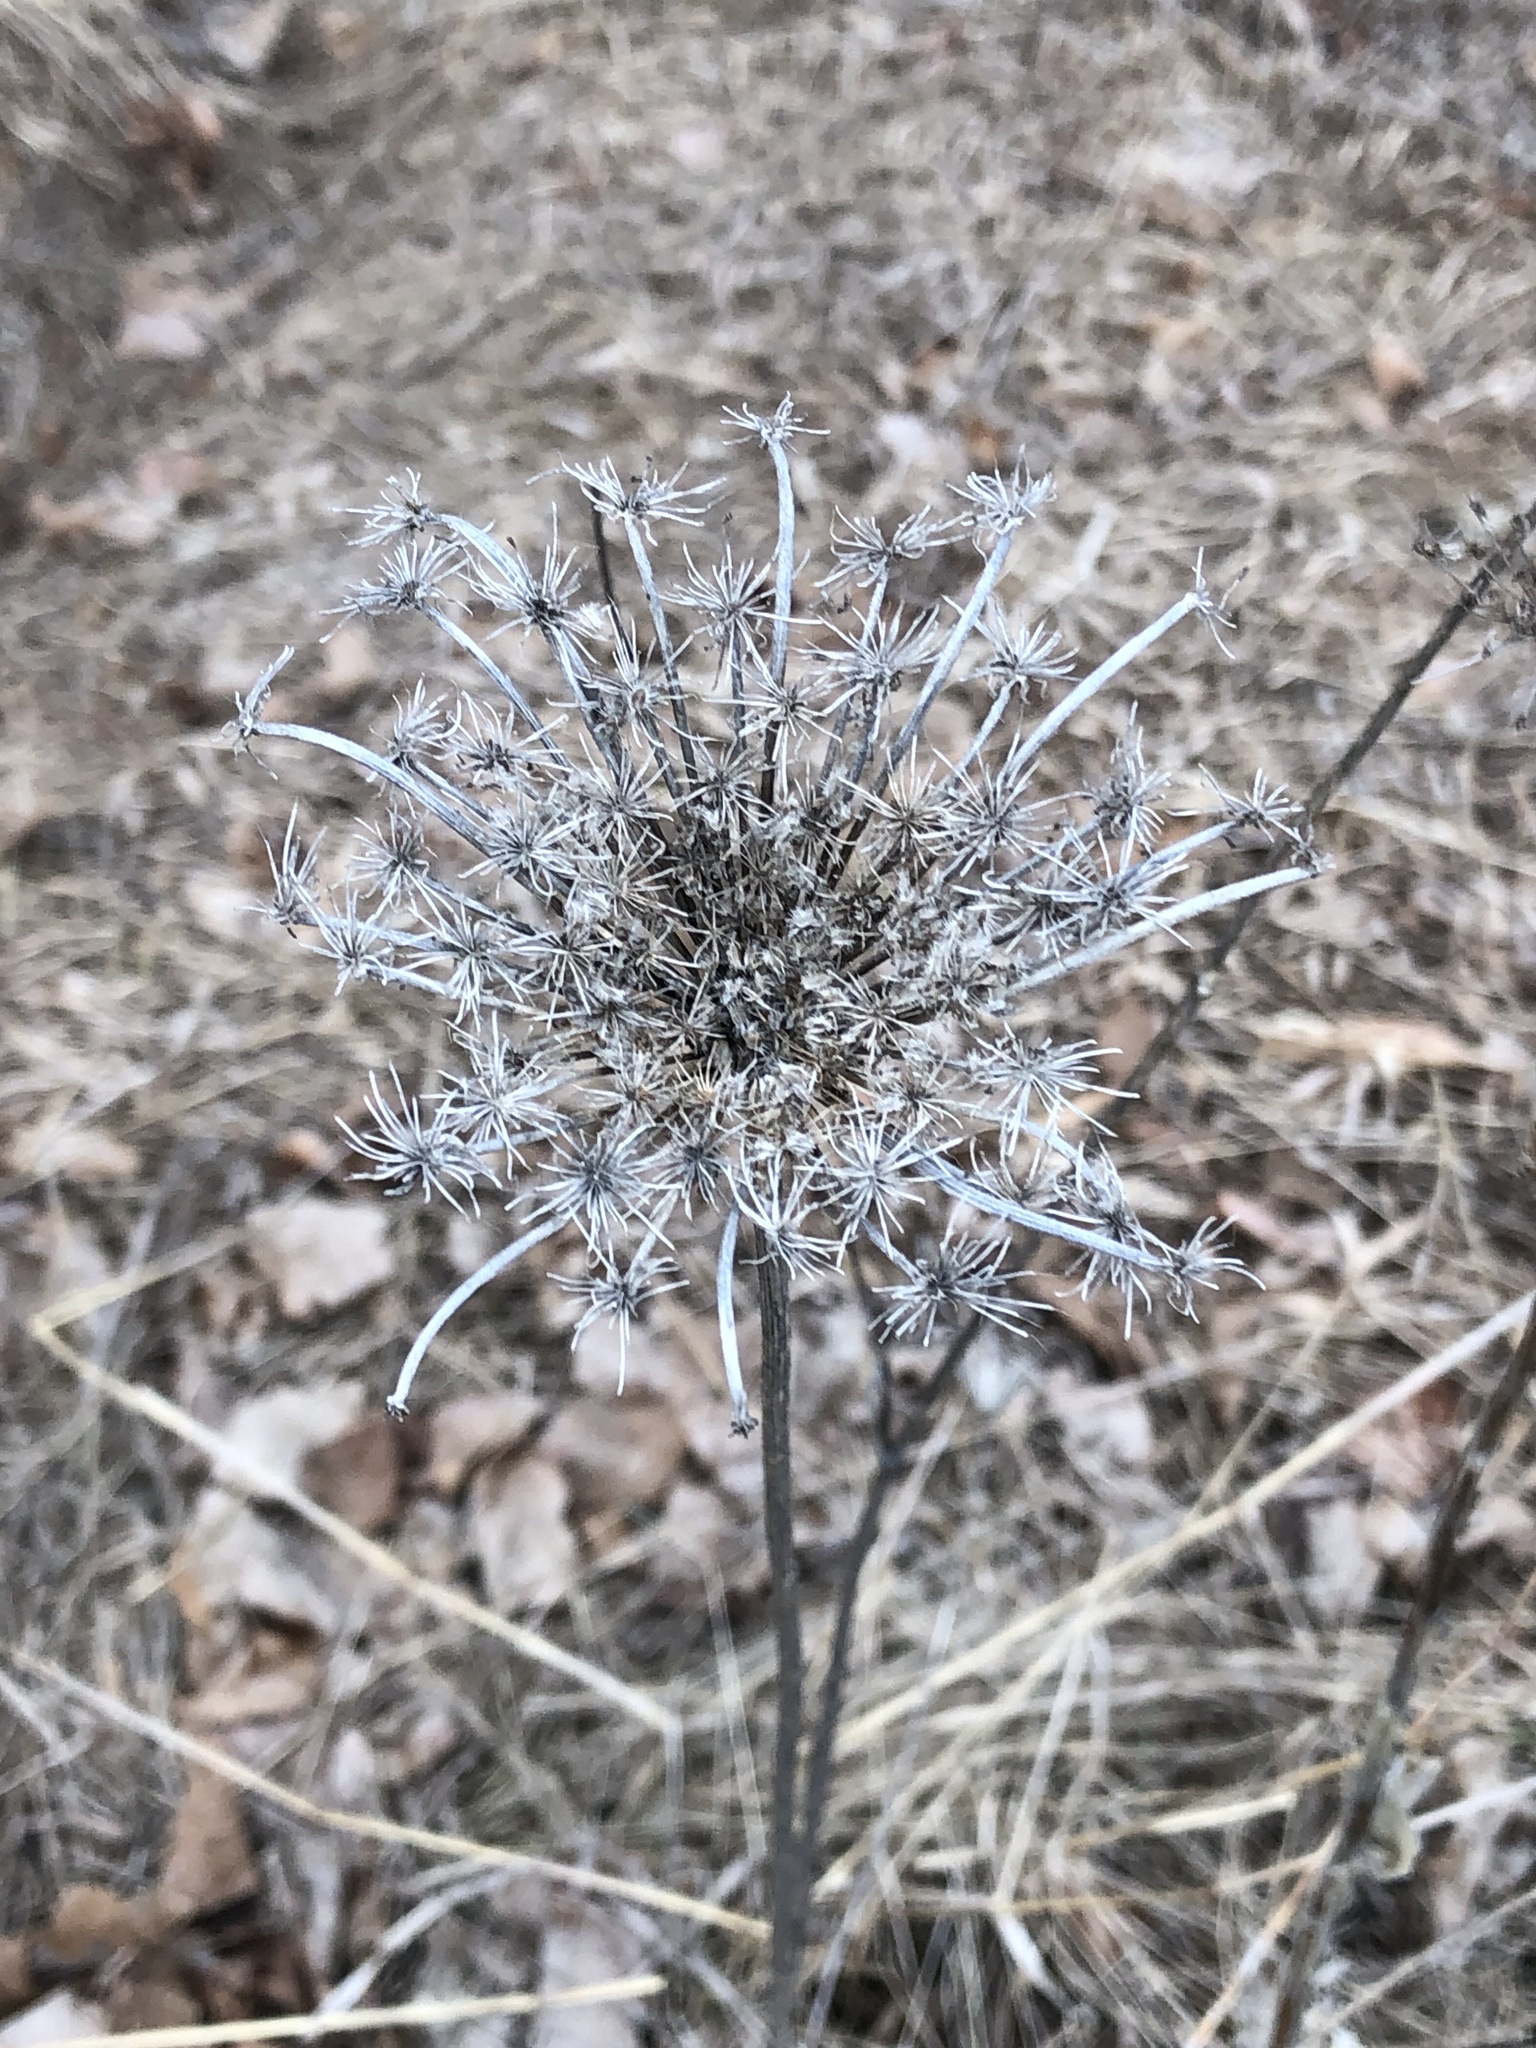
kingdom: Plantae
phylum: Tracheophyta
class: Magnoliopsida
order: Apiales
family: Apiaceae
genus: Daucus
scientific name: Daucus carota
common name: Wild carrot
